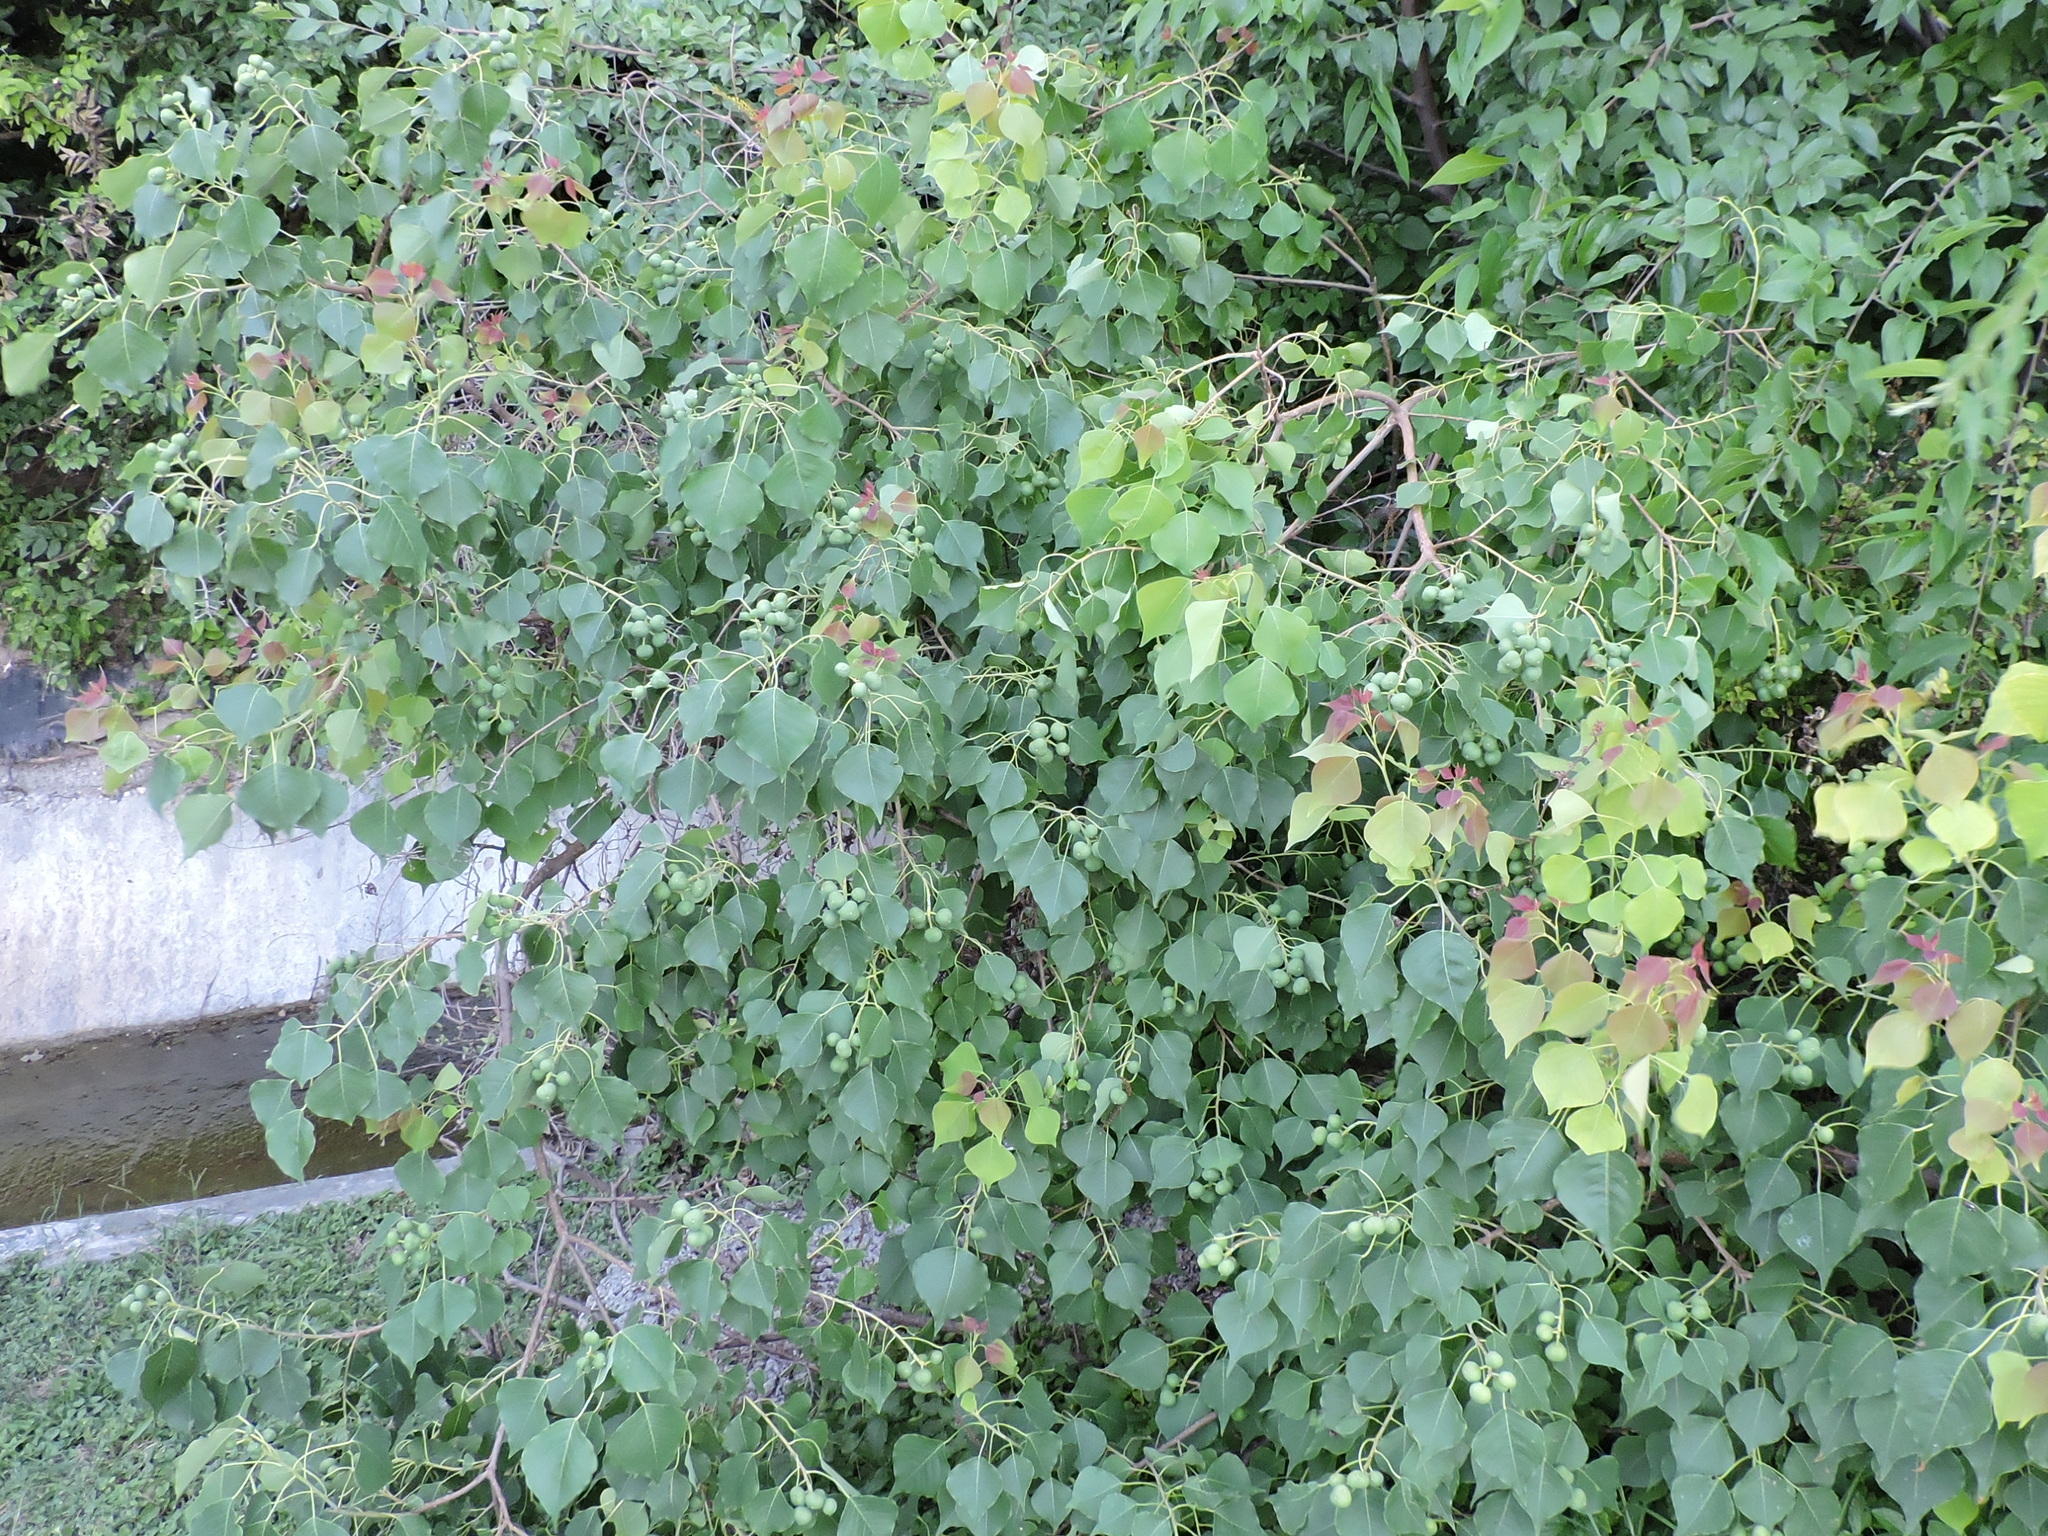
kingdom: Plantae
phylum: Tracheophyta
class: Magnoliopsida
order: Malpighiales
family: Euphorbiaceae
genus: Triadica
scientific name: Triadica sebifera
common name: Chinese tallow
